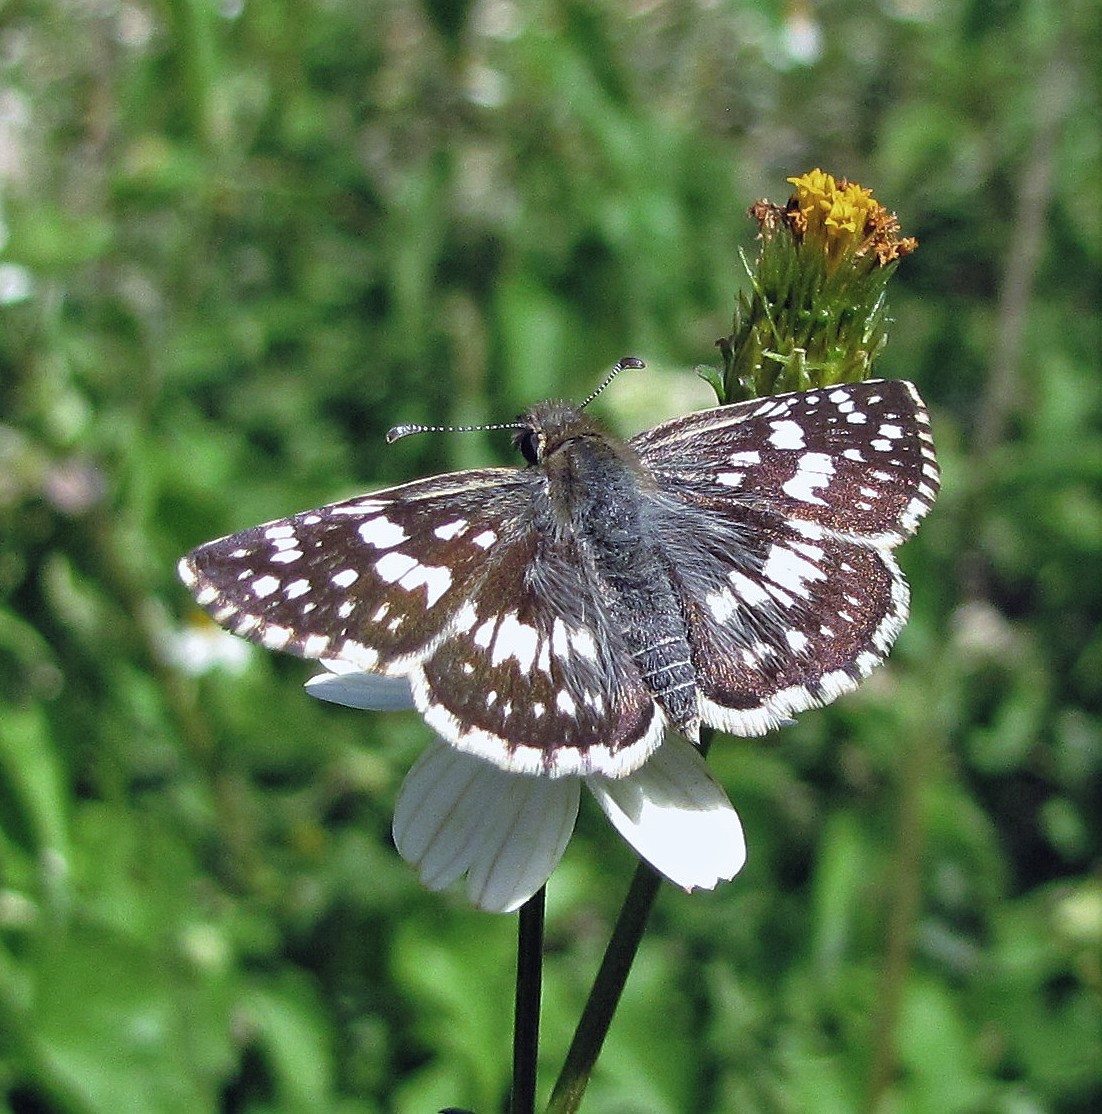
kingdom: Animalia
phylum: Arthropoda
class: Insecta
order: Lepidoptera
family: Hesperiidae
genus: Burnsius
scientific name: Burnsius orcynoides
